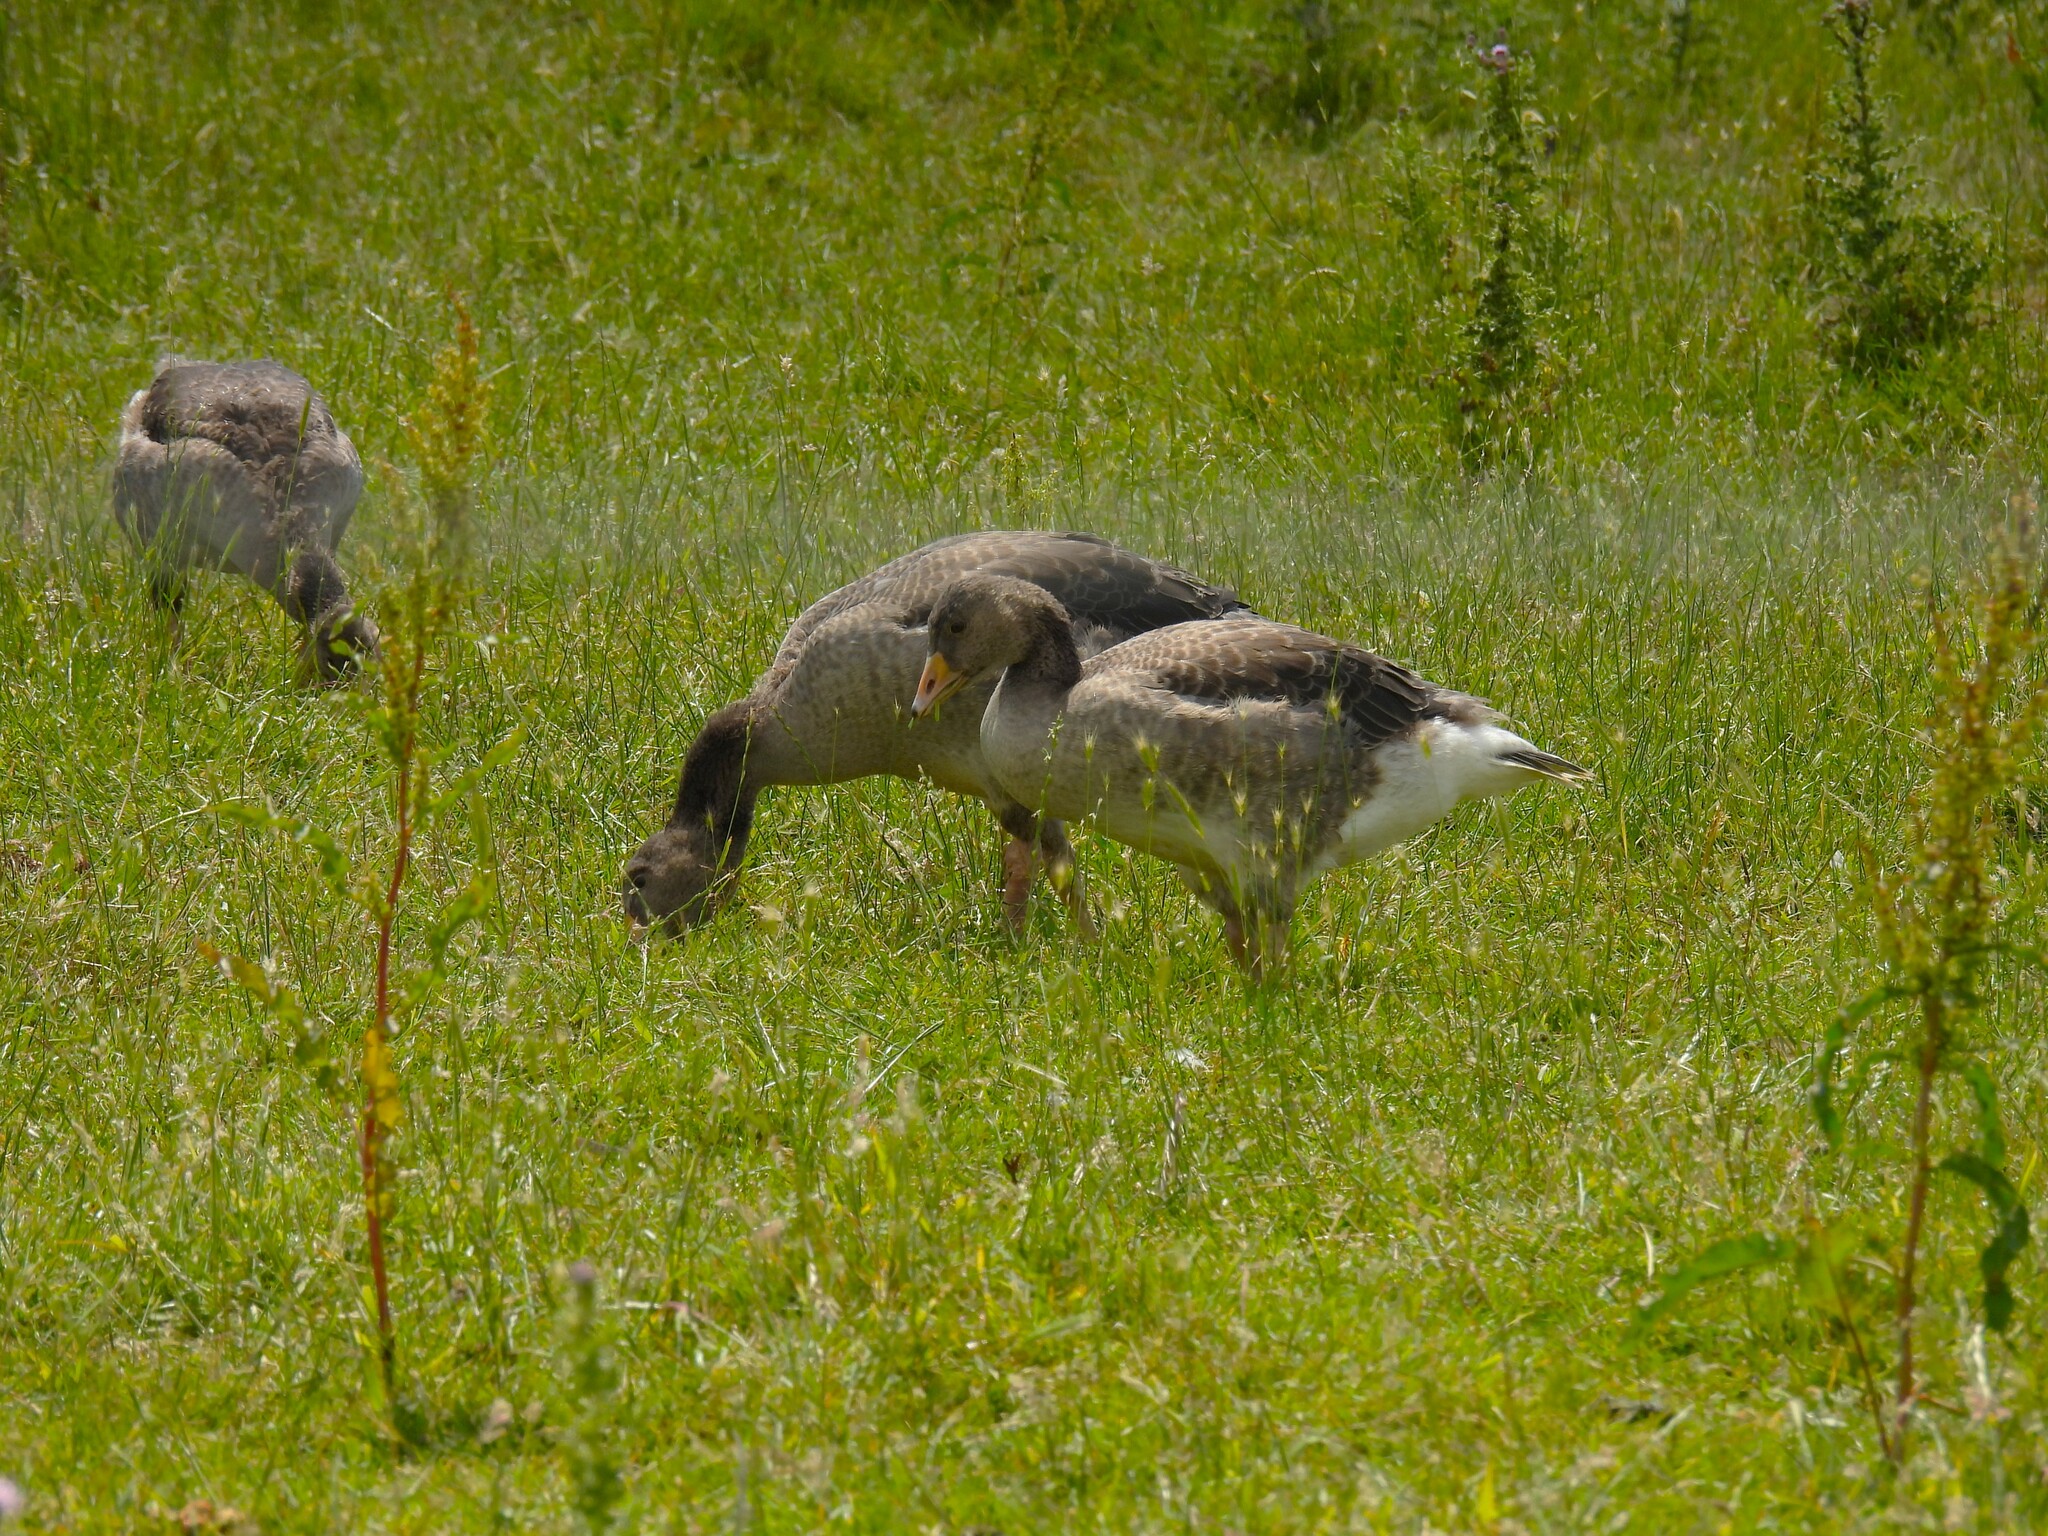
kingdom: Animalia
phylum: Chordata
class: Aves
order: Anseriformes
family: Anatidae
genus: Anser
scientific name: Anser anser
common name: Greylag goose
